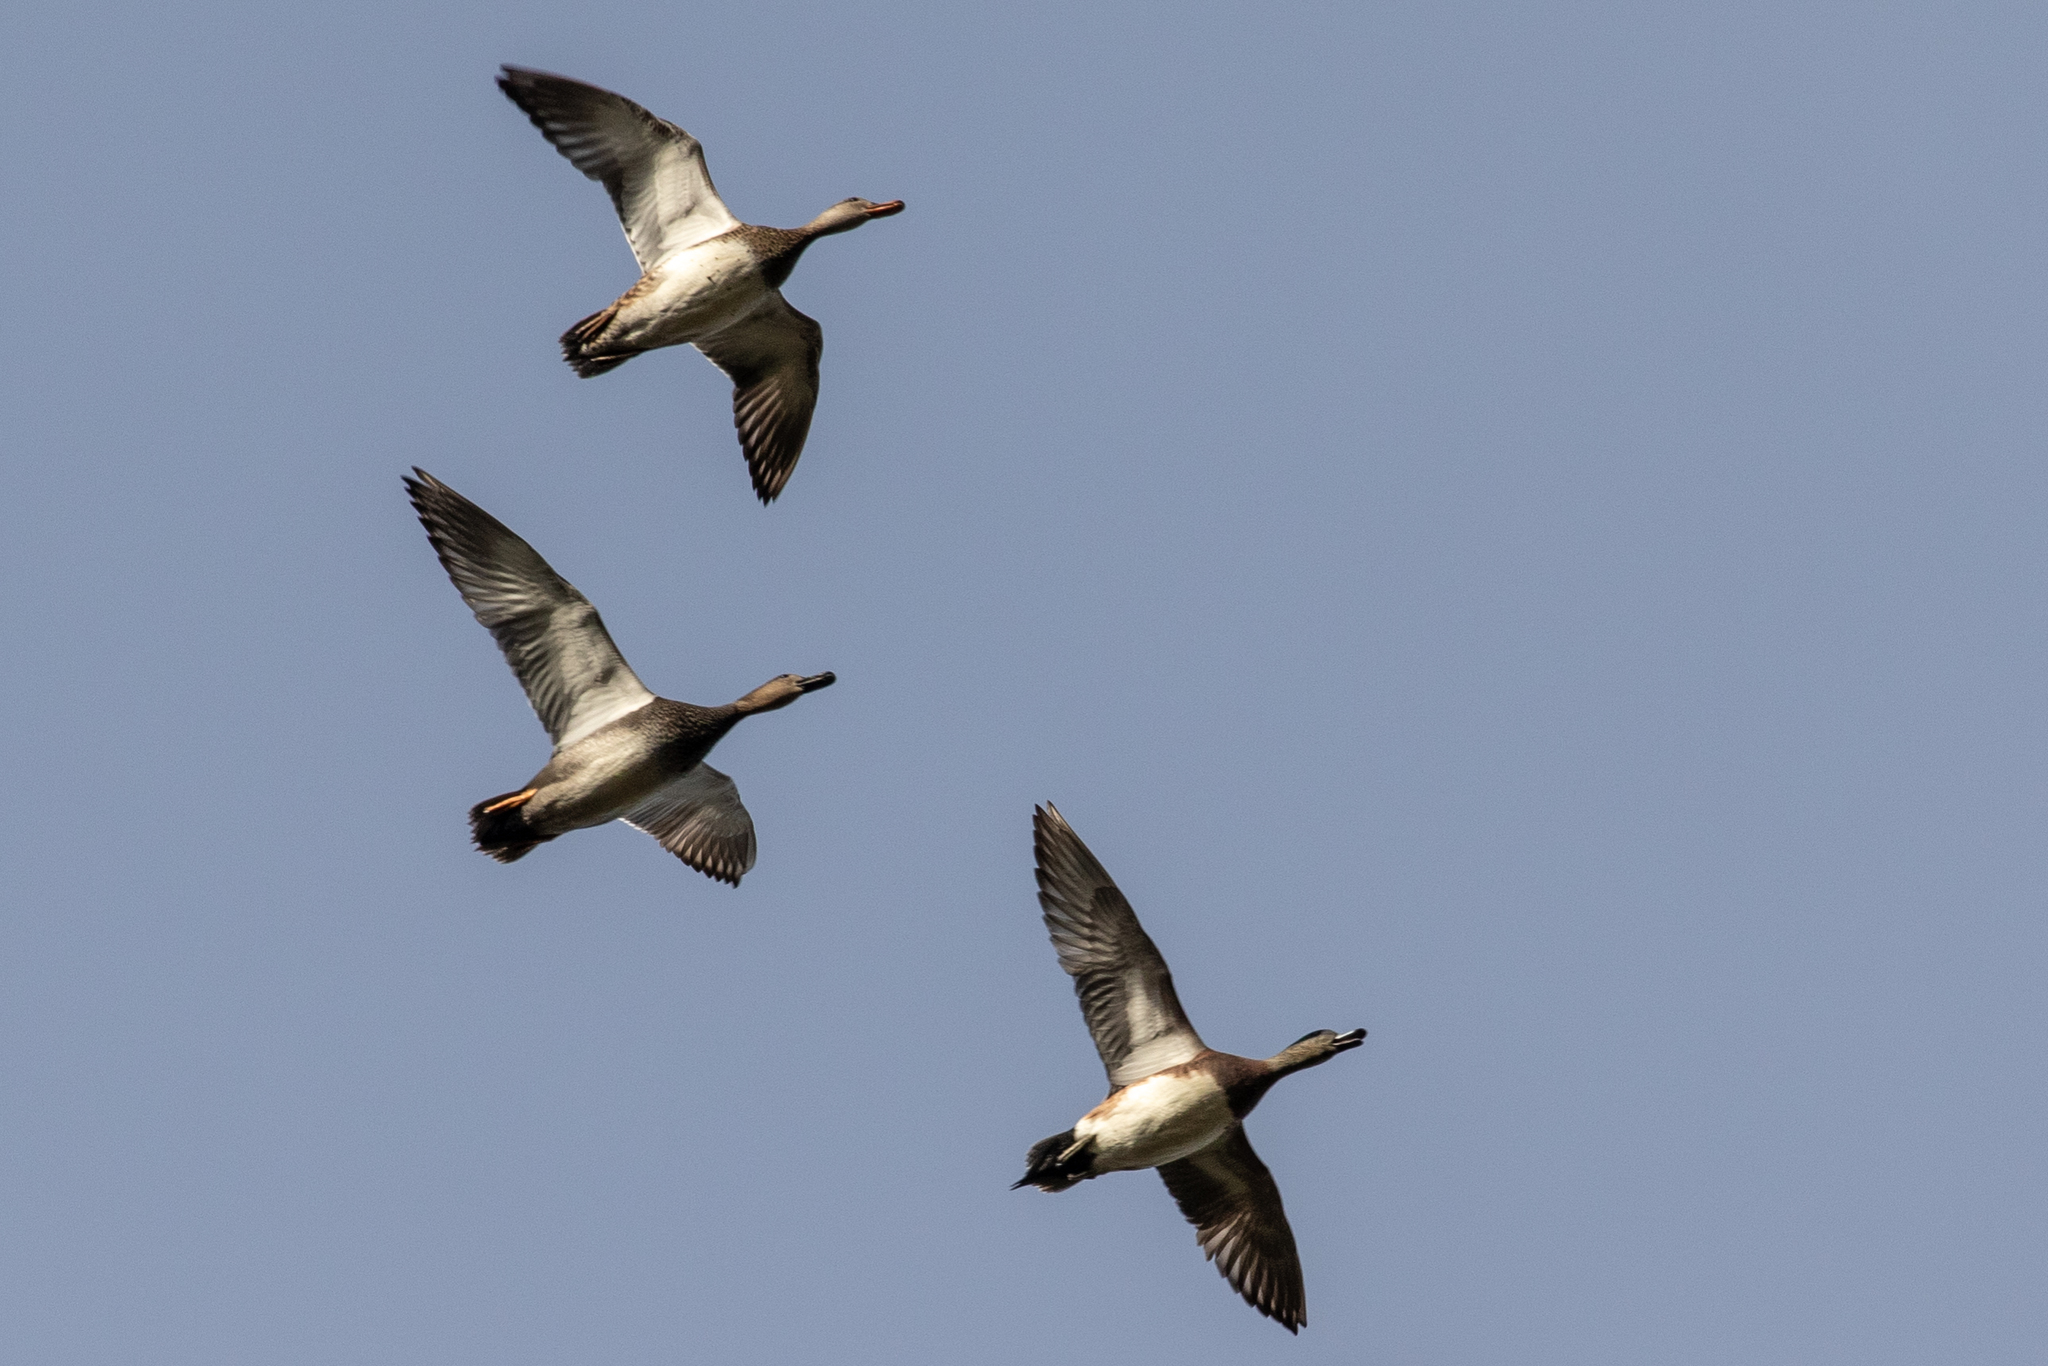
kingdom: Animalia
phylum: Chordata
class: Aves
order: Anseriformes
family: Anatidae
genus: Mareca
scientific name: Mareca americana
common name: American wigeon
